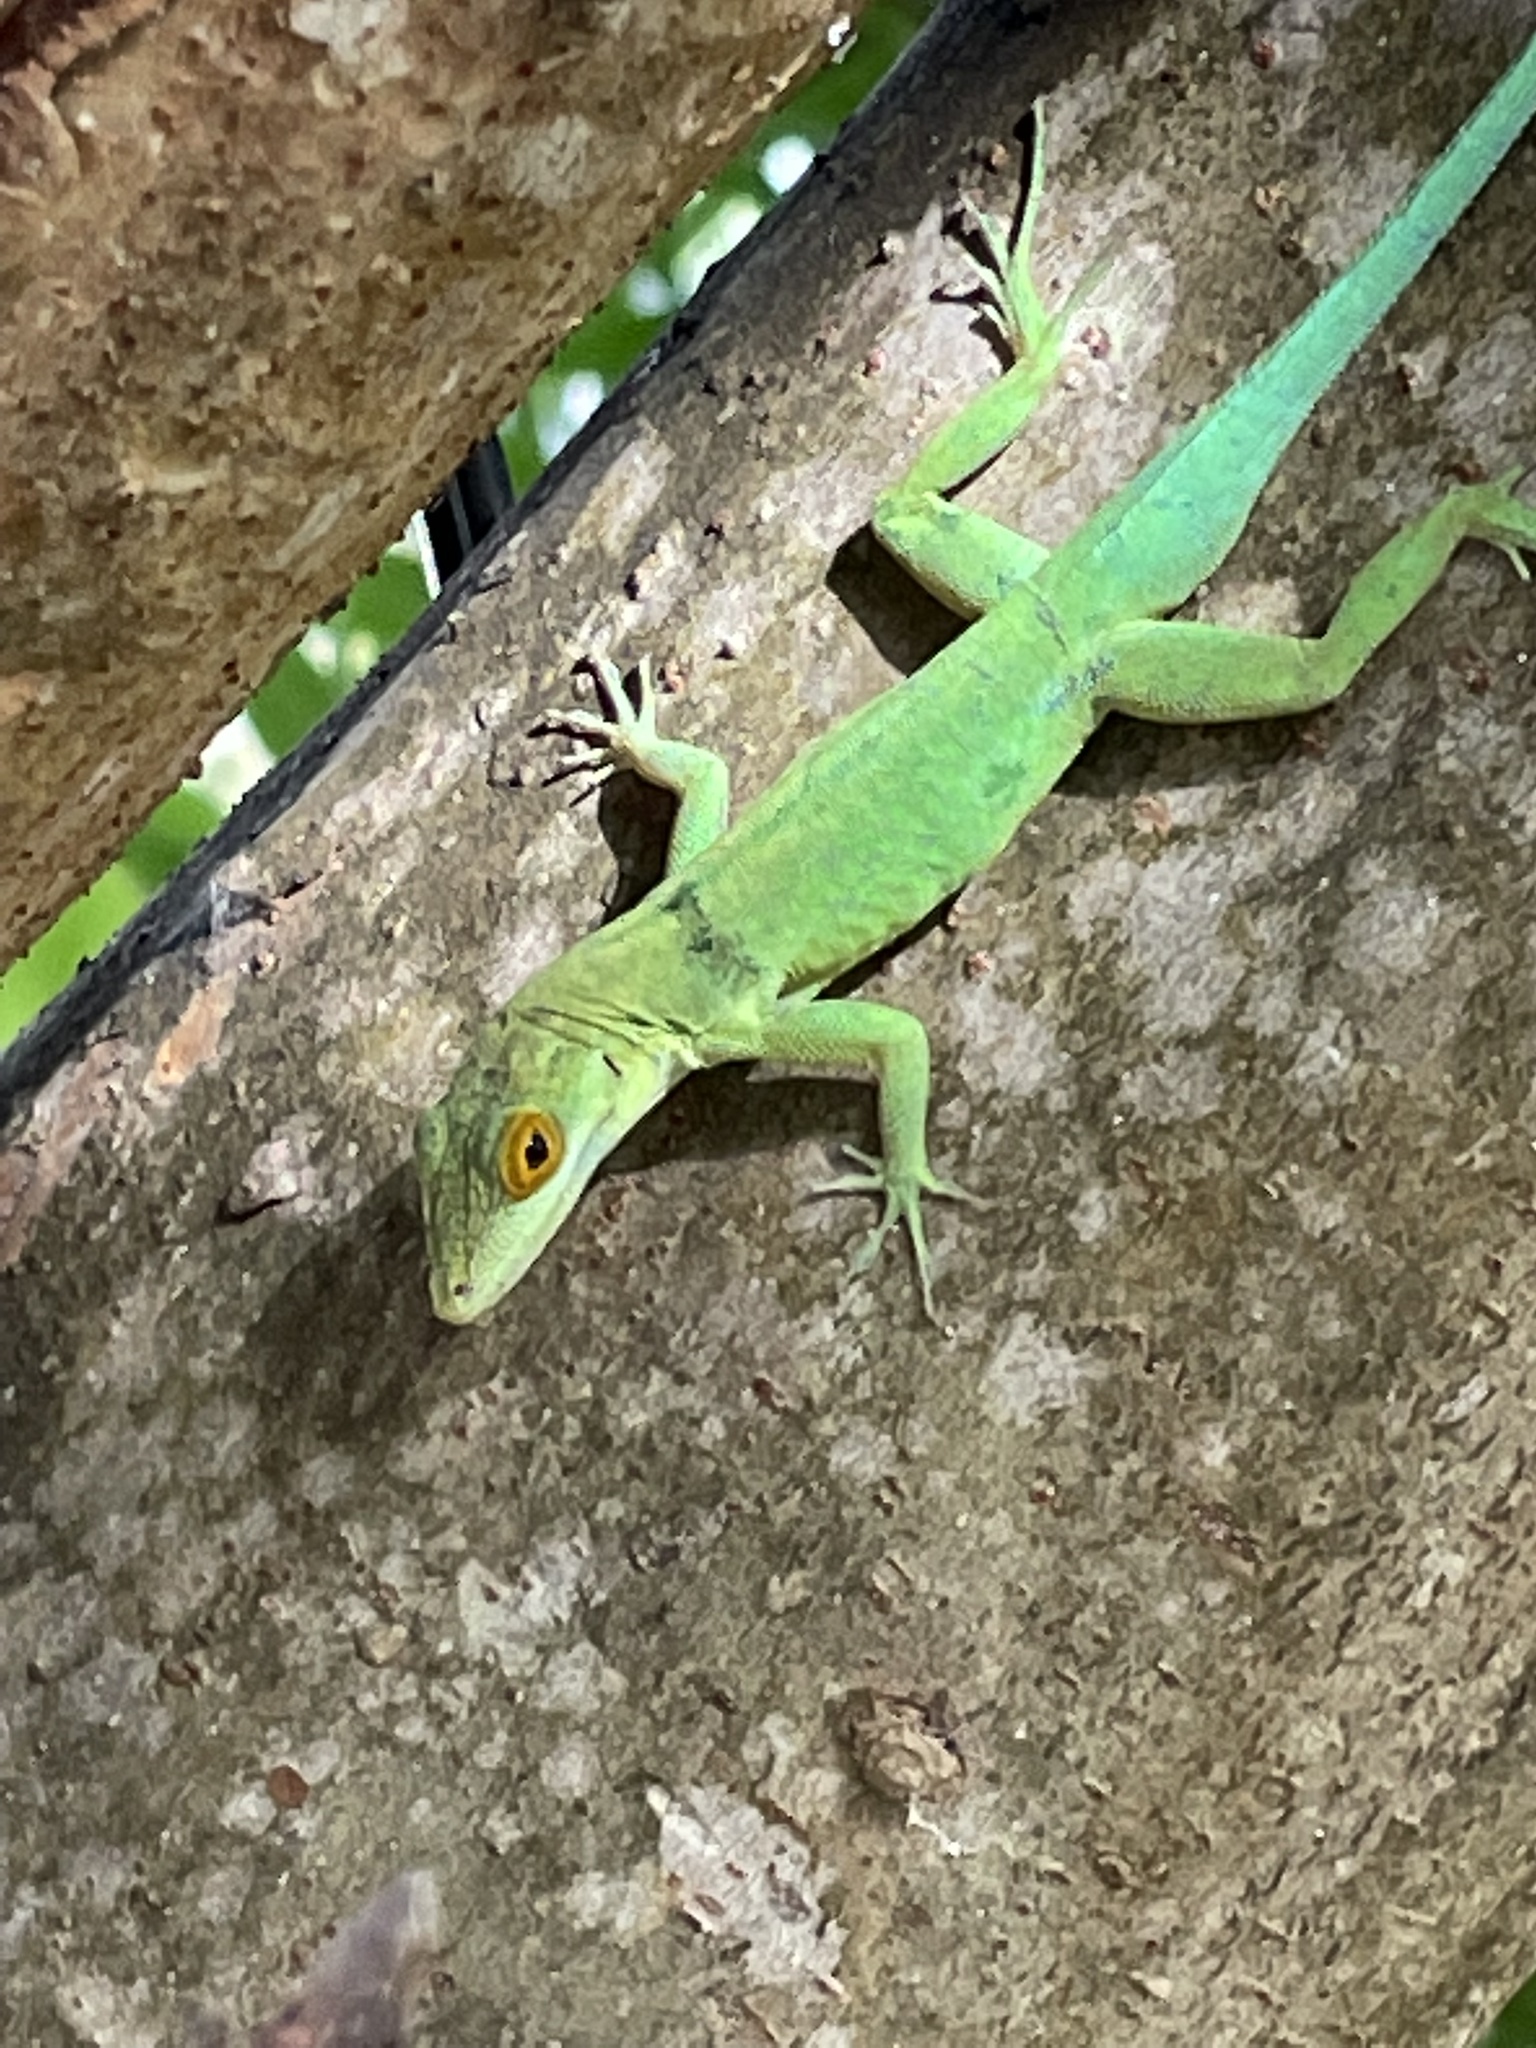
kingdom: Animalia
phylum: Chordata
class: Squamata
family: Dactyloidae
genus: Anolis
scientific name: Anolis lividus
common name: Montserrat anole
